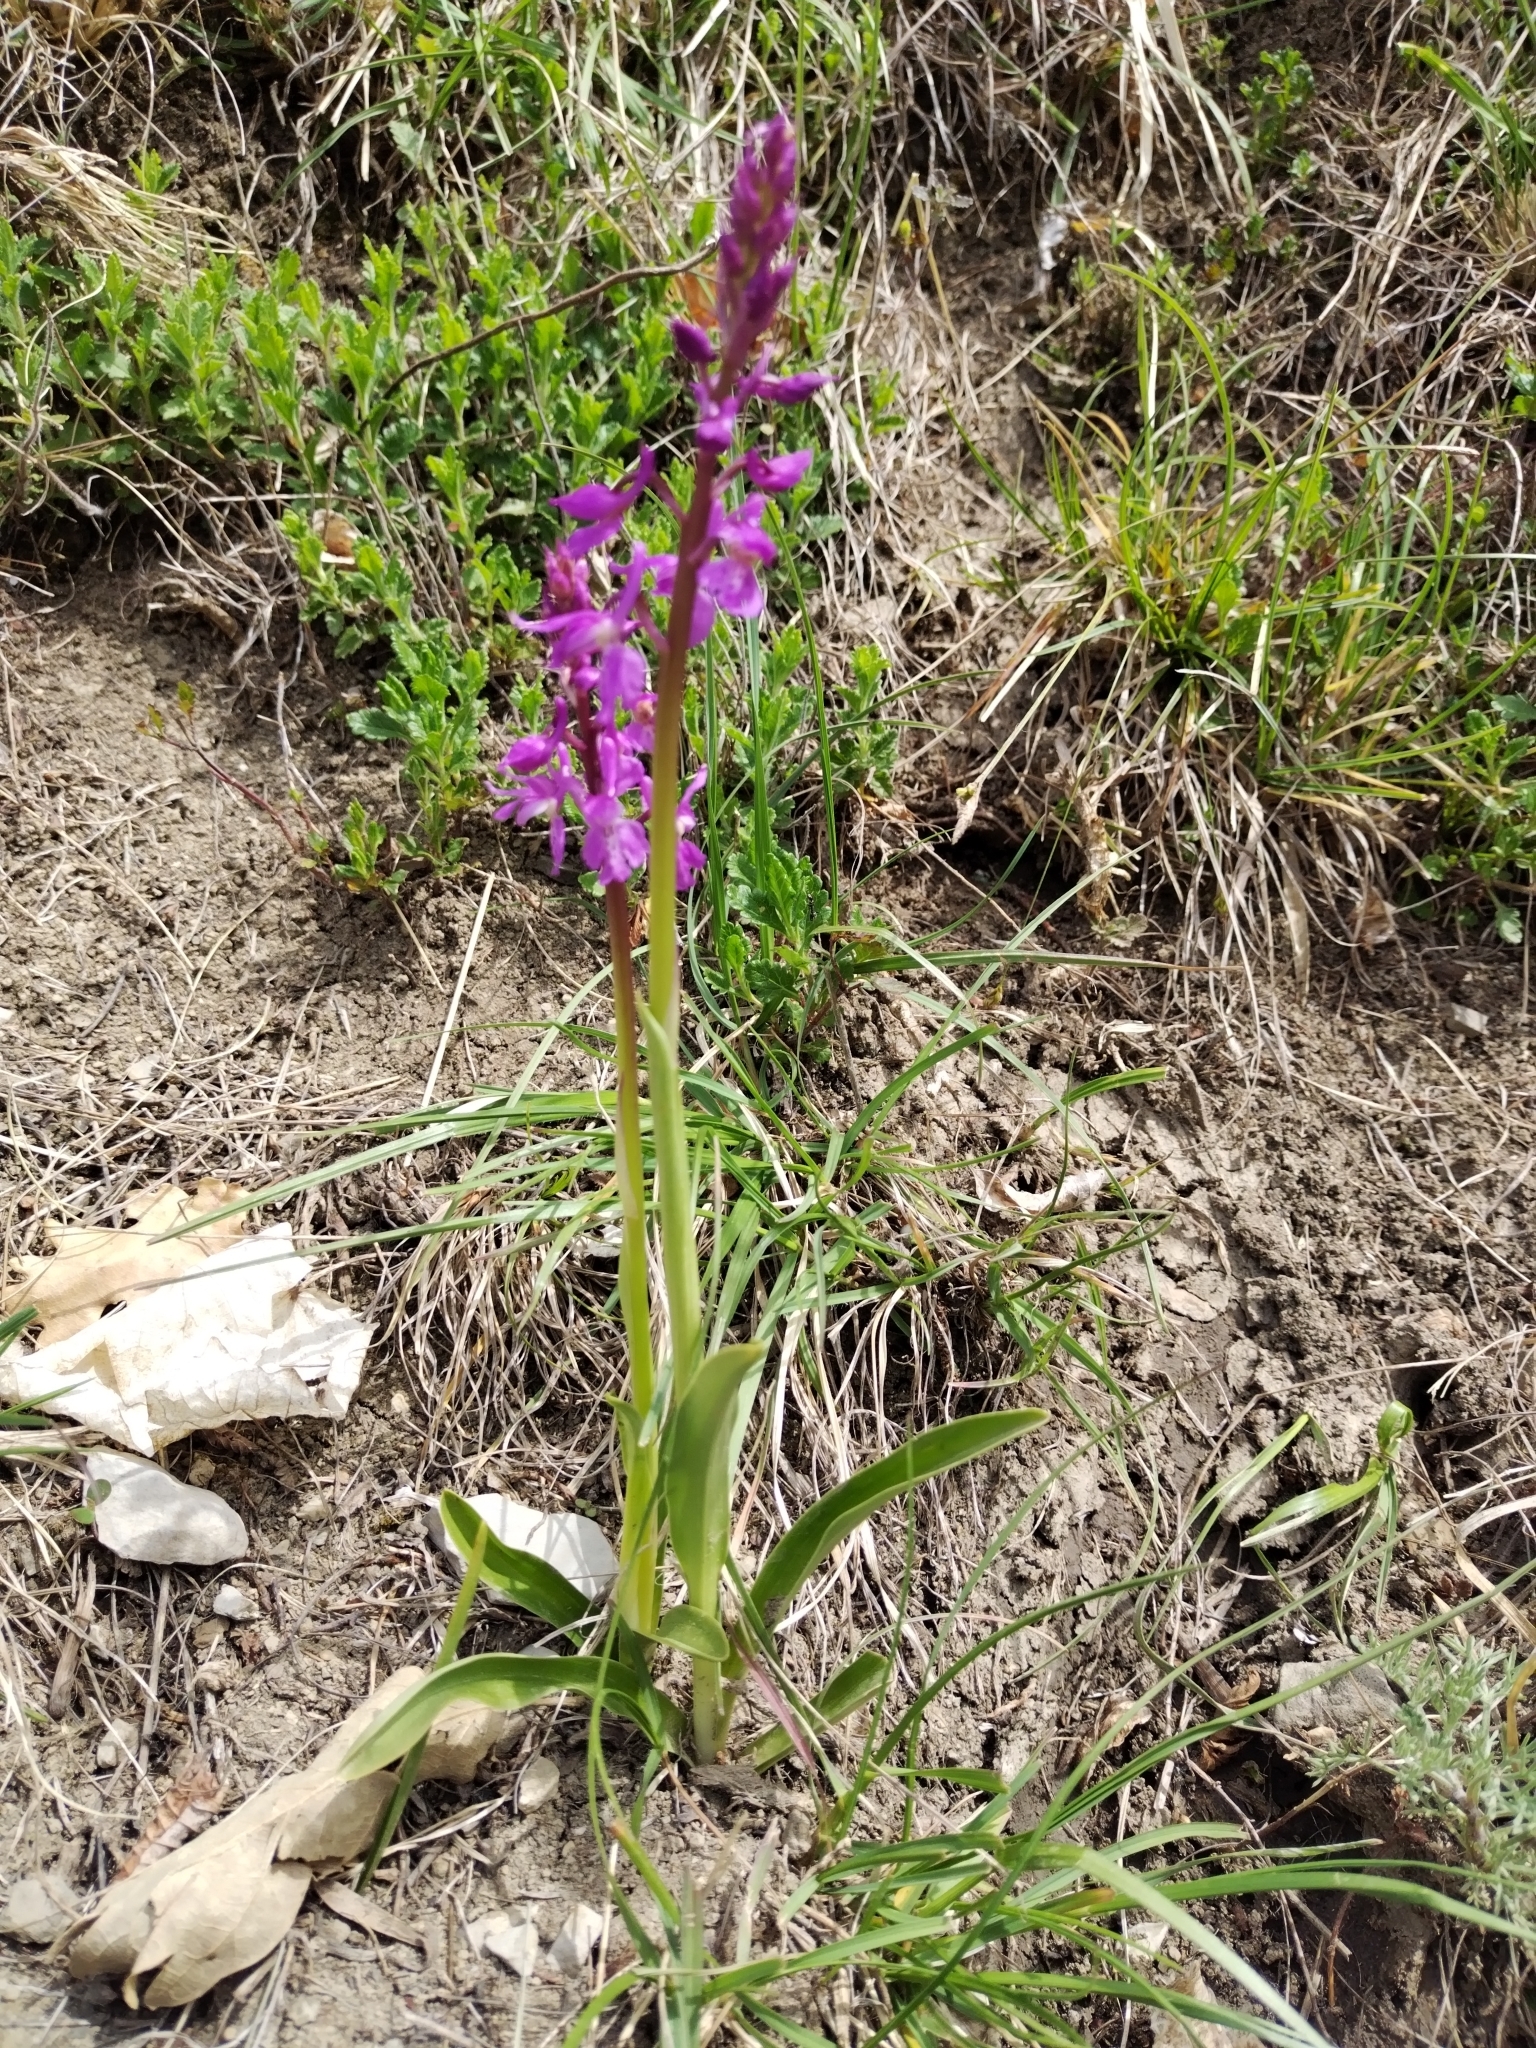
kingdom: Plantae
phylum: Tracheophyta
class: Liliopsida
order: Asparagales
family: Orchidaceae
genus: Orchis
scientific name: Orchis mascula
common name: Early-purple orchid
